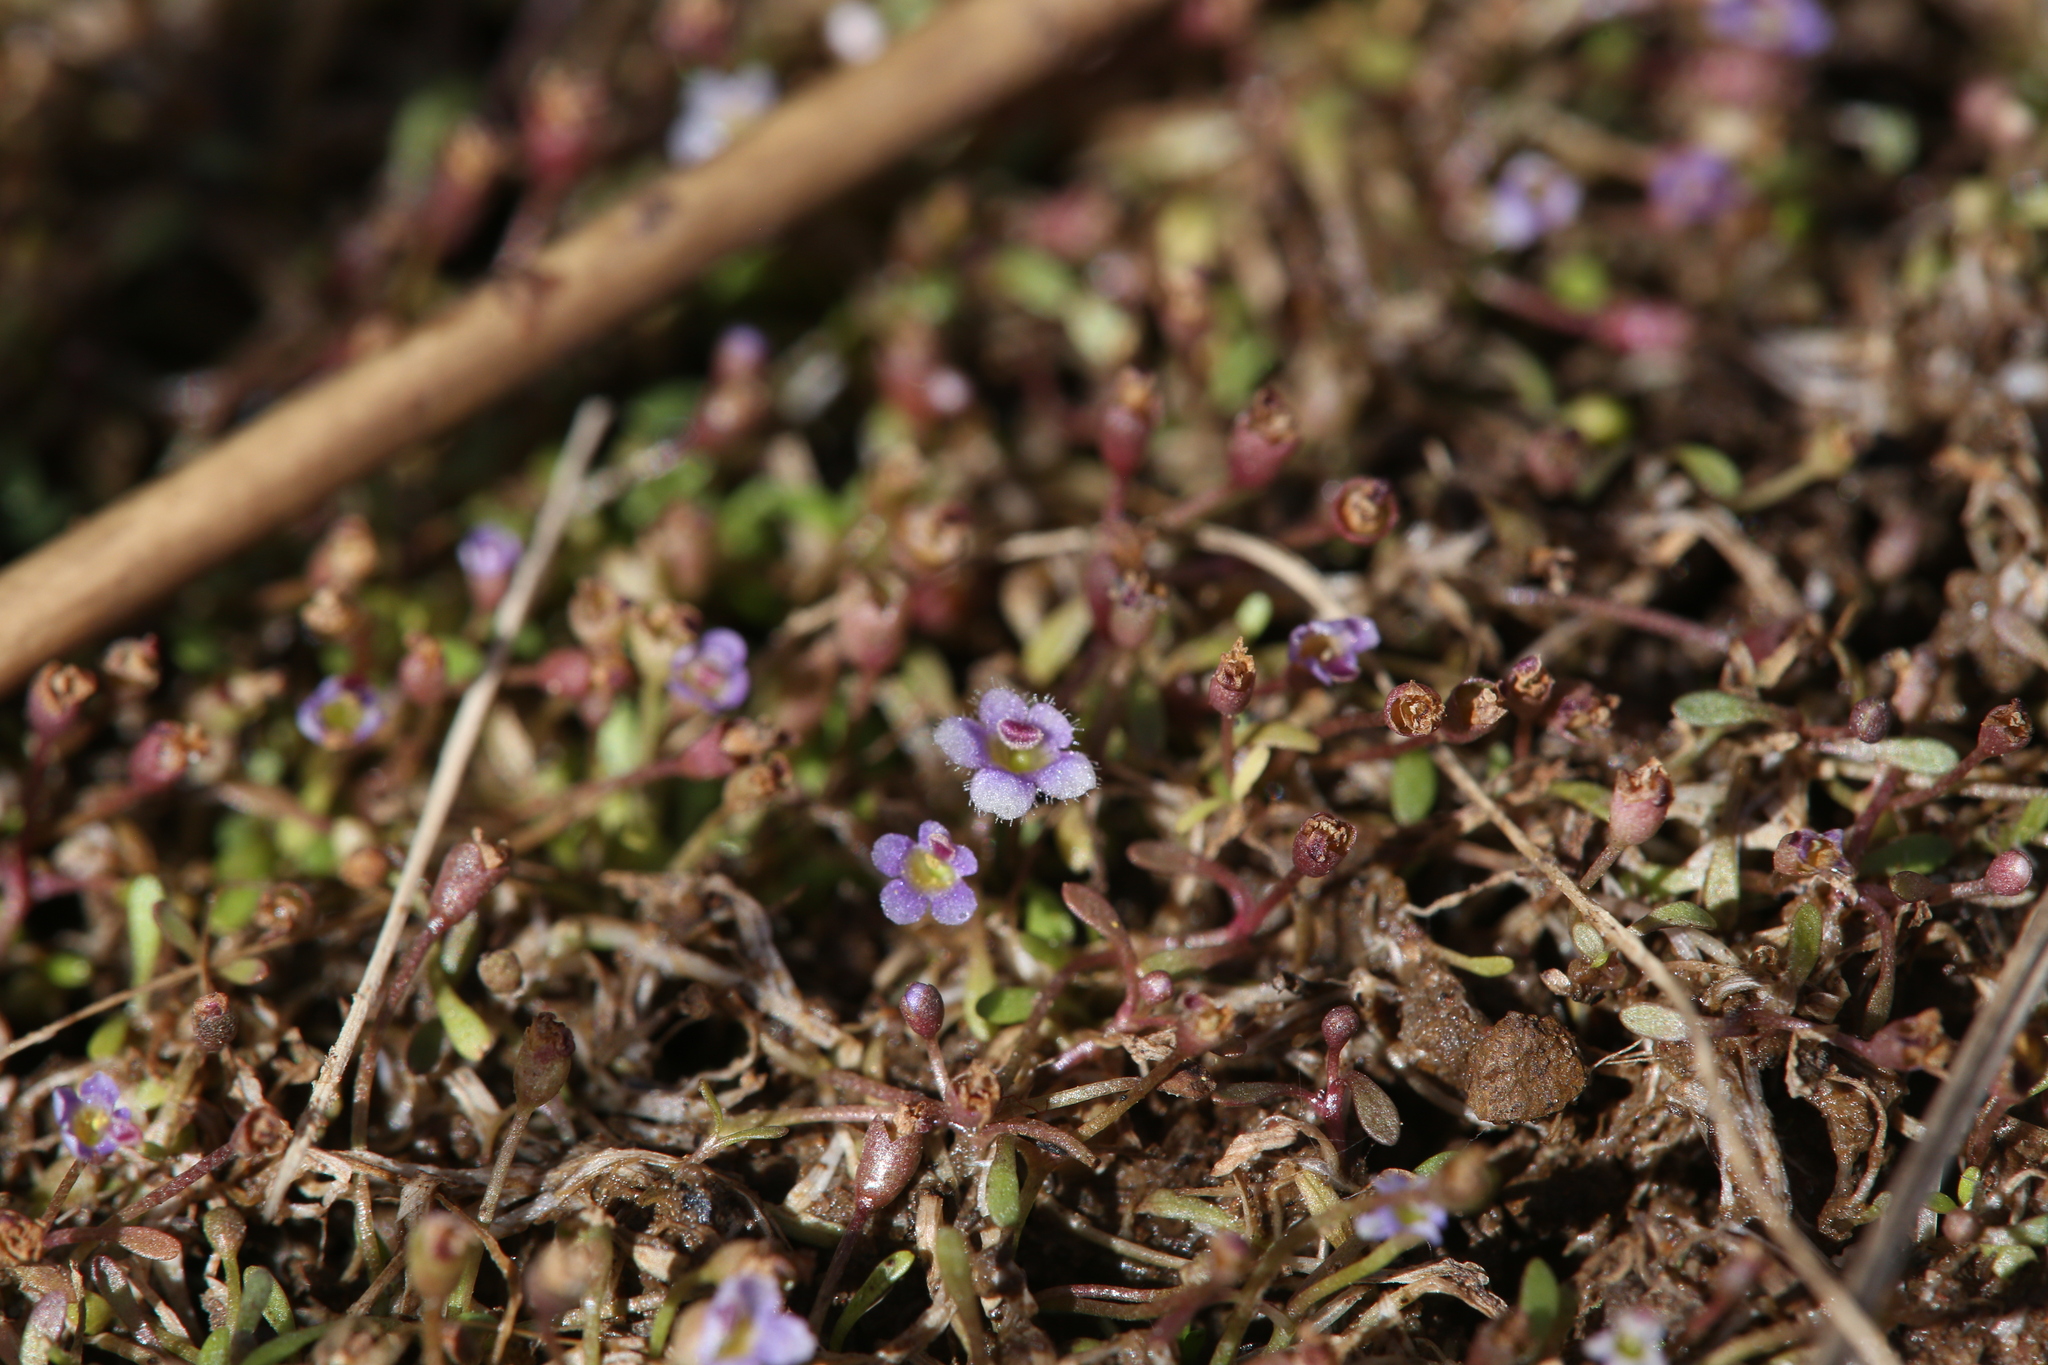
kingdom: Plantae
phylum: Tracheophyta
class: Magnoliopsida
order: Lamiales
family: Phrymaceae
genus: Glossostigma
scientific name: Glossostigma drummondii
